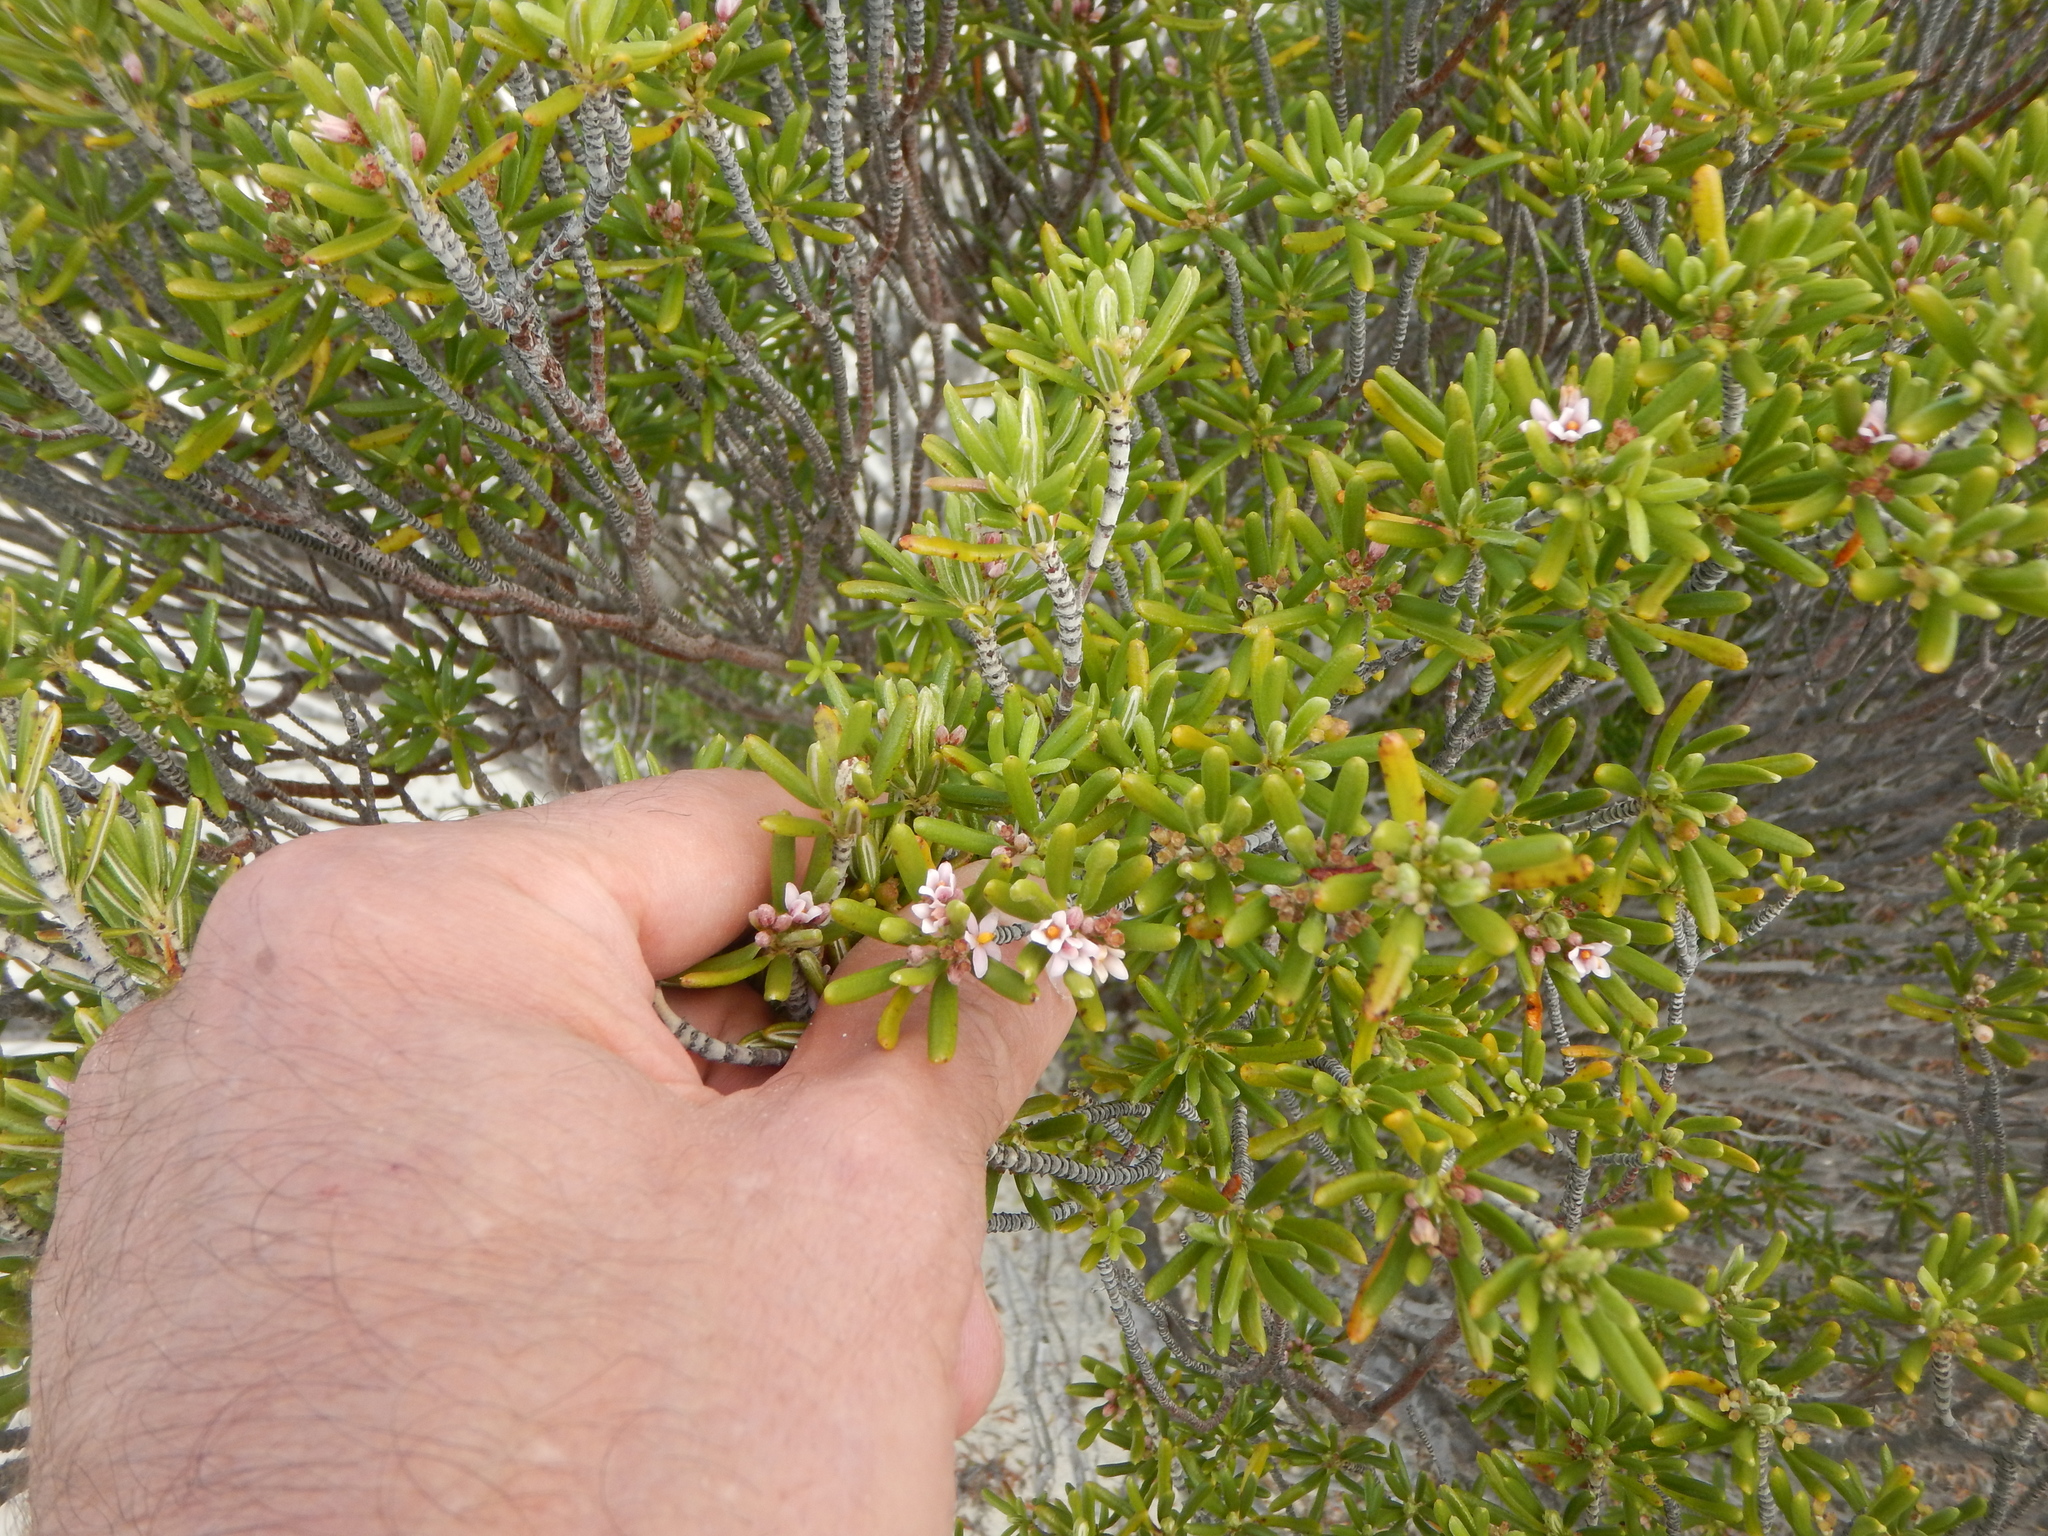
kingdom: Plantae
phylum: Tracheophyta
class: Magnoliopsida
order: Gentianales
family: Rubiaceae
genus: Strumpfia
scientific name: Strumpfia maritima
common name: Pride-of-big pine
